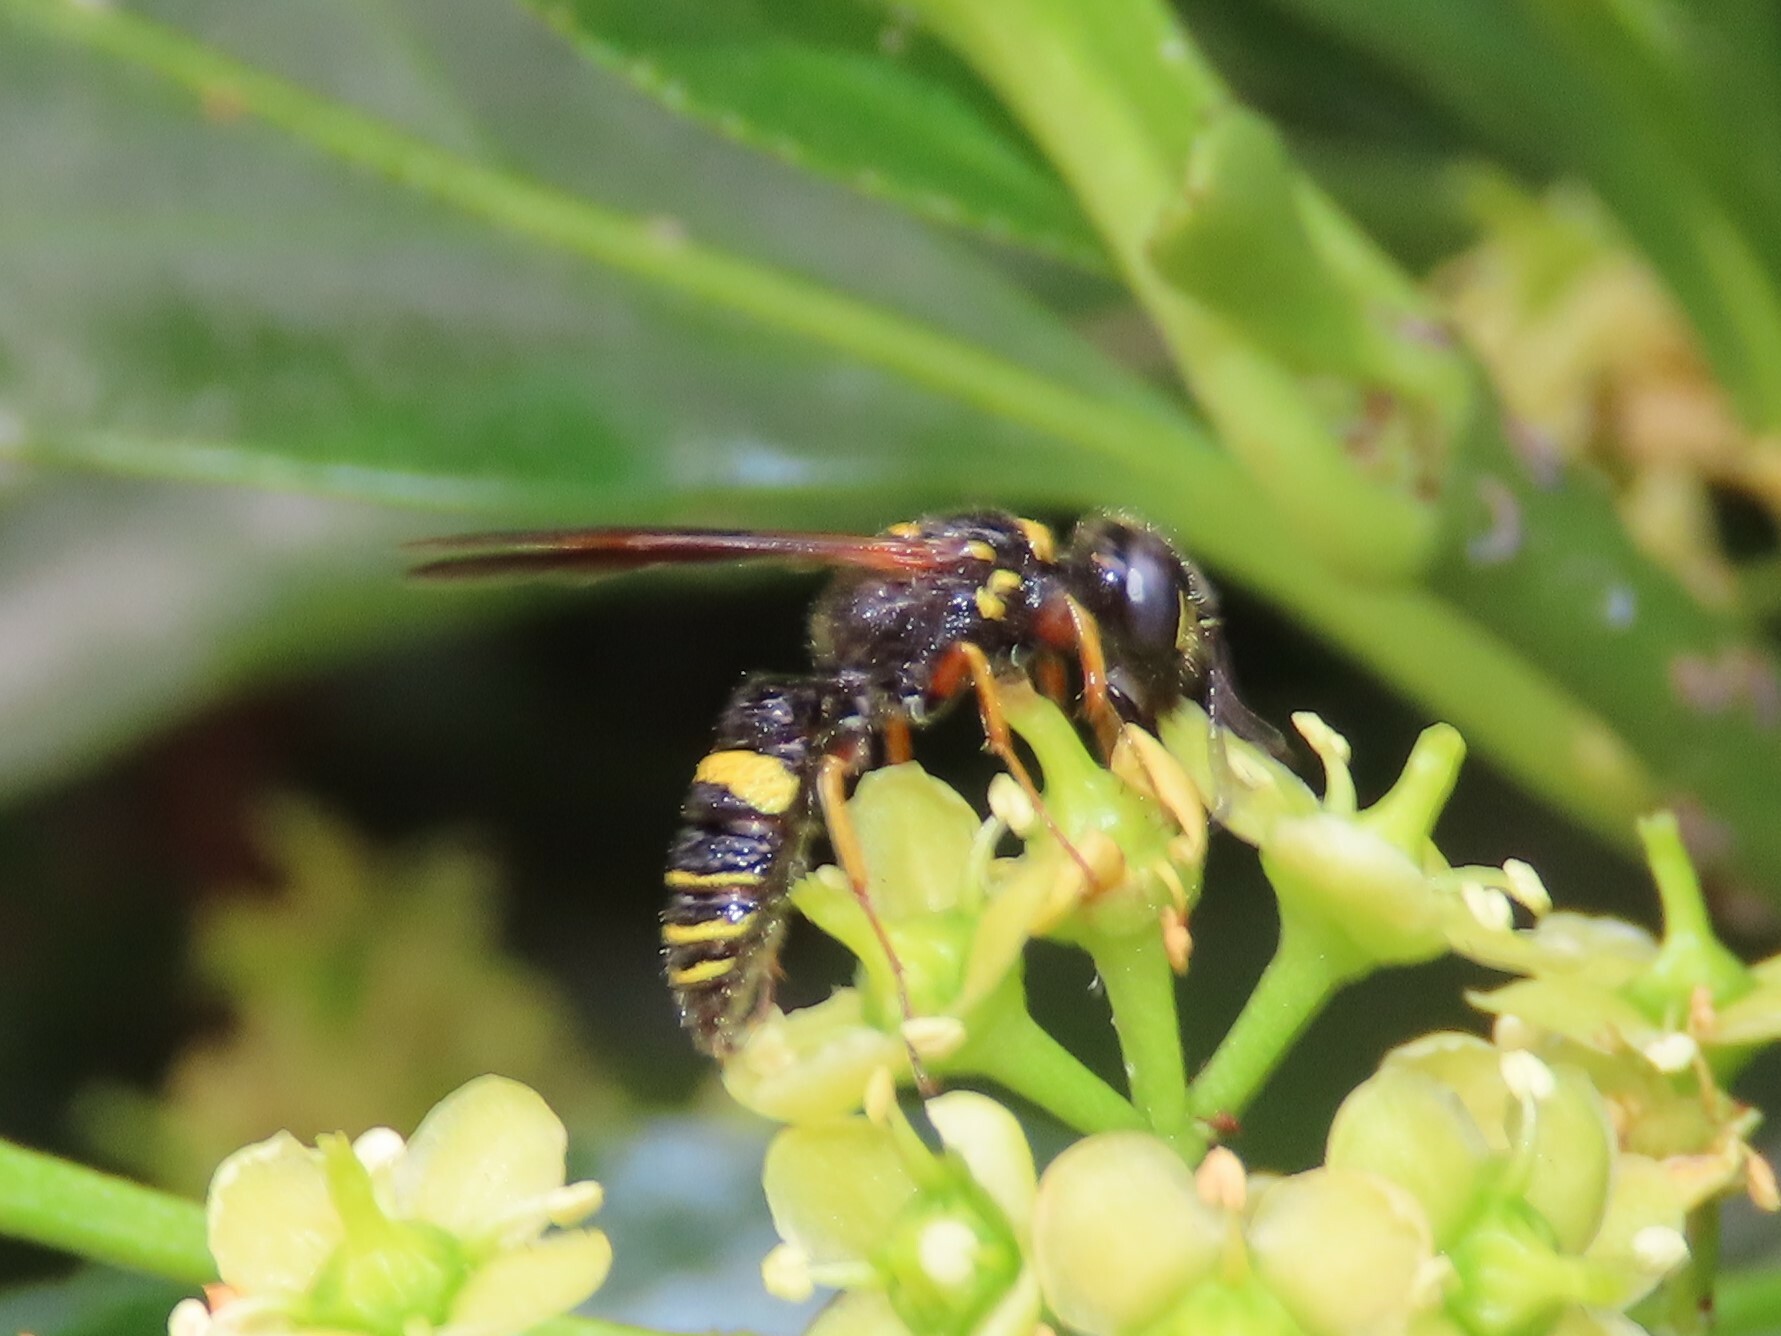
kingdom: Animalia
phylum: Arthropoda
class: Insecta
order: Hymenoptera
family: Crabronidae
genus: Philanthus
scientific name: Philanthus gibbosus
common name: Humped beewolf
